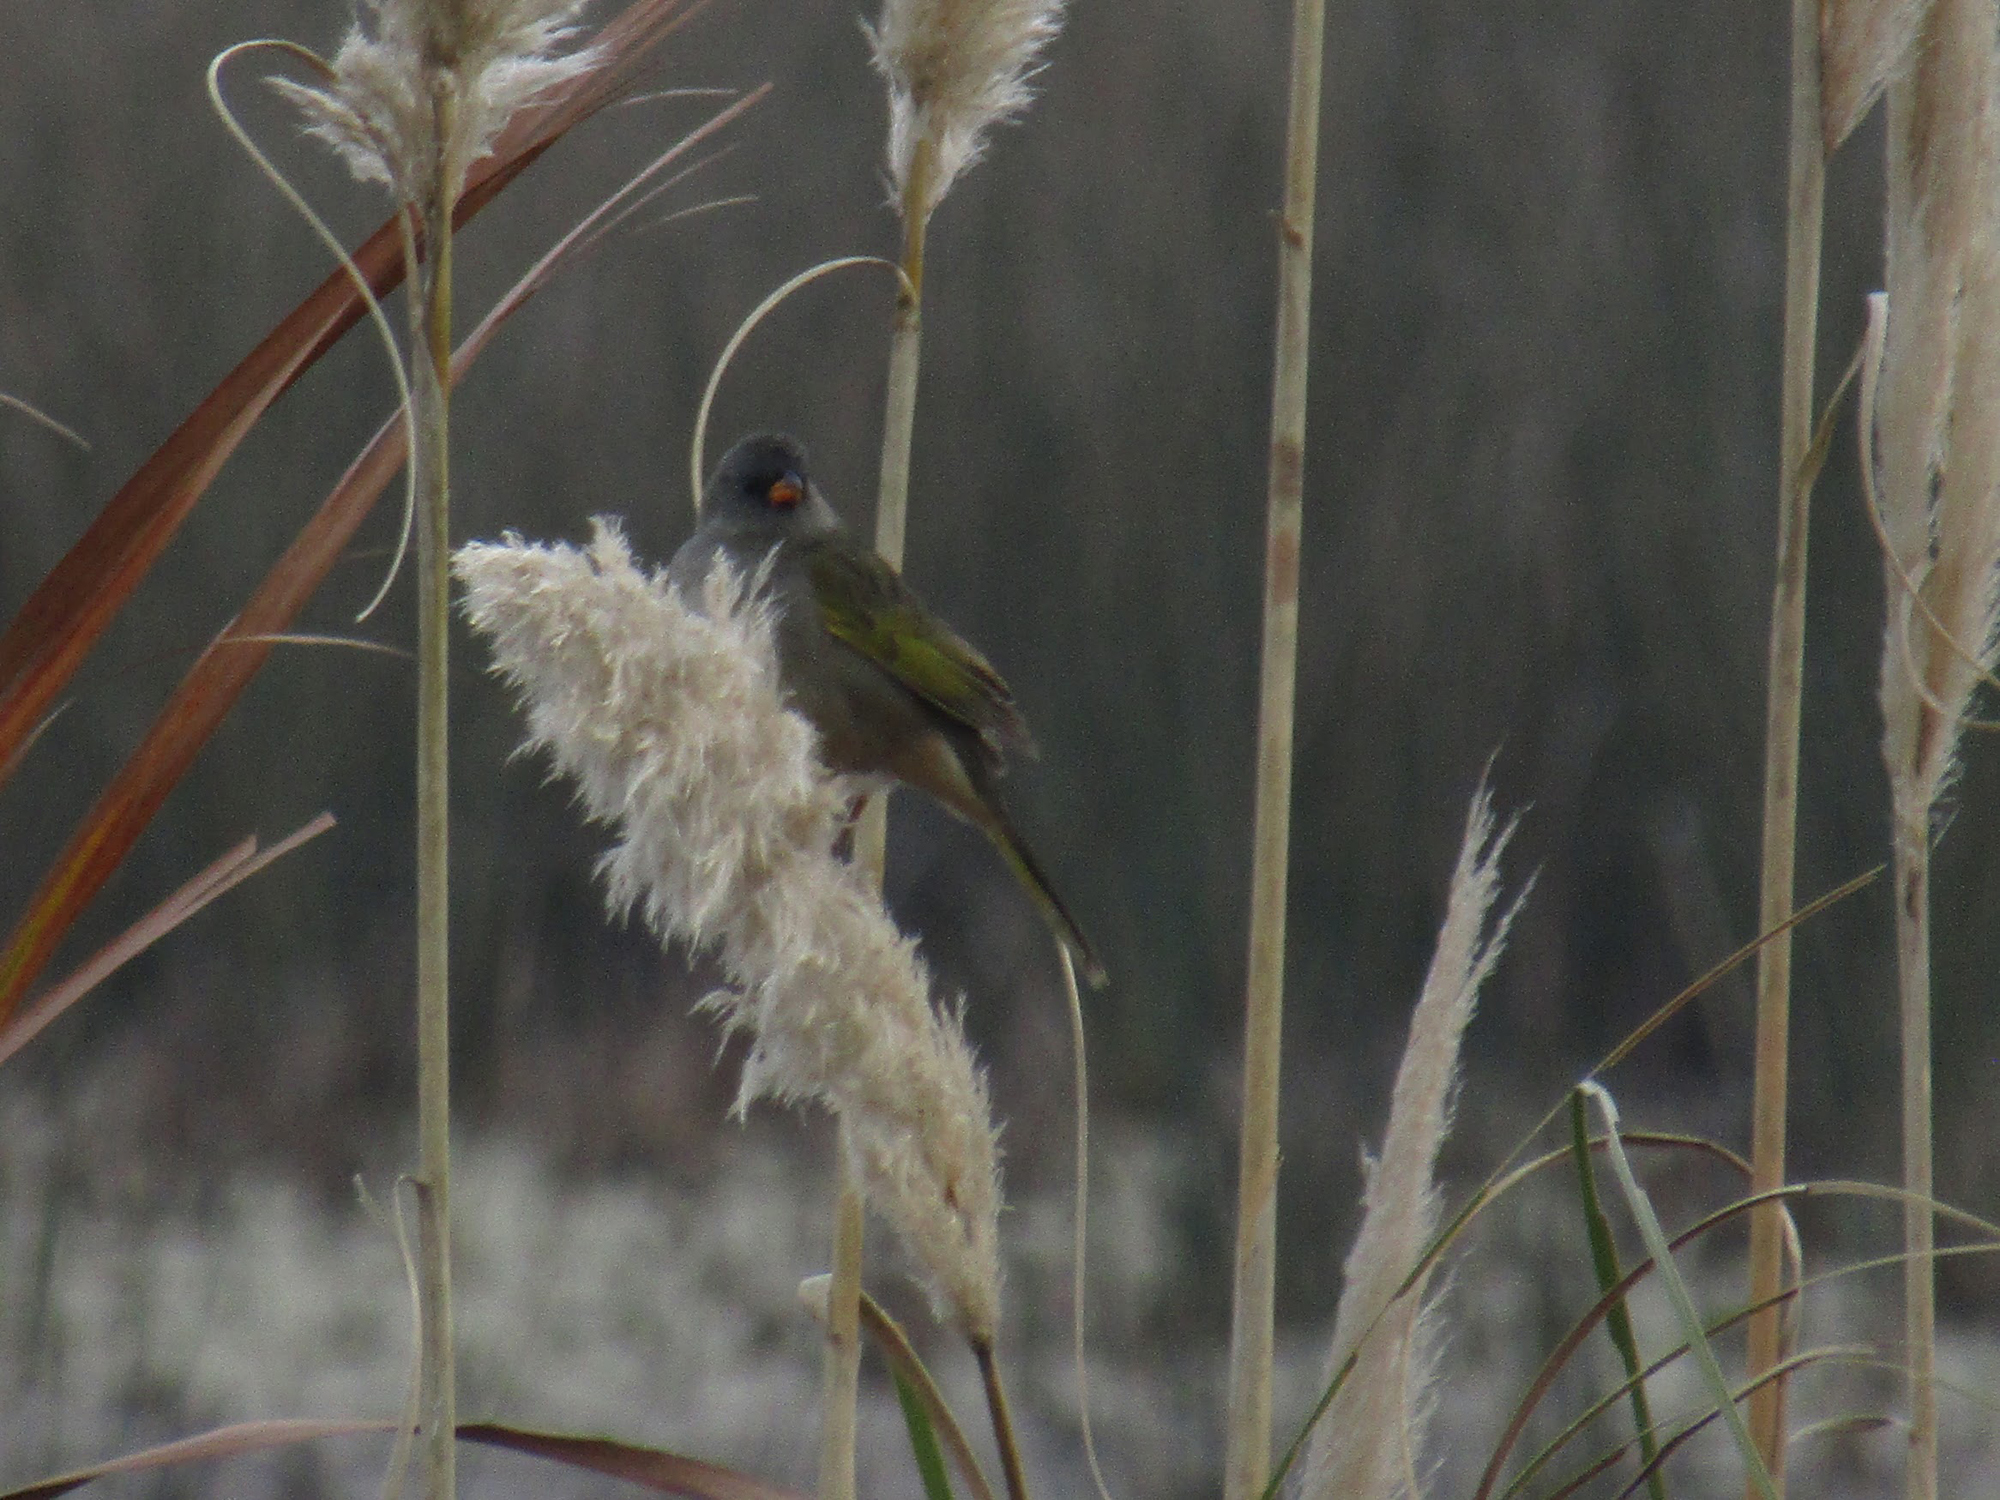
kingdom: Animalia
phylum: Chordata
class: Aves
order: Passeriformes
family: Thraupidae
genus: Embernagra
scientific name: Embernagra platensis
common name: Pampa finch
